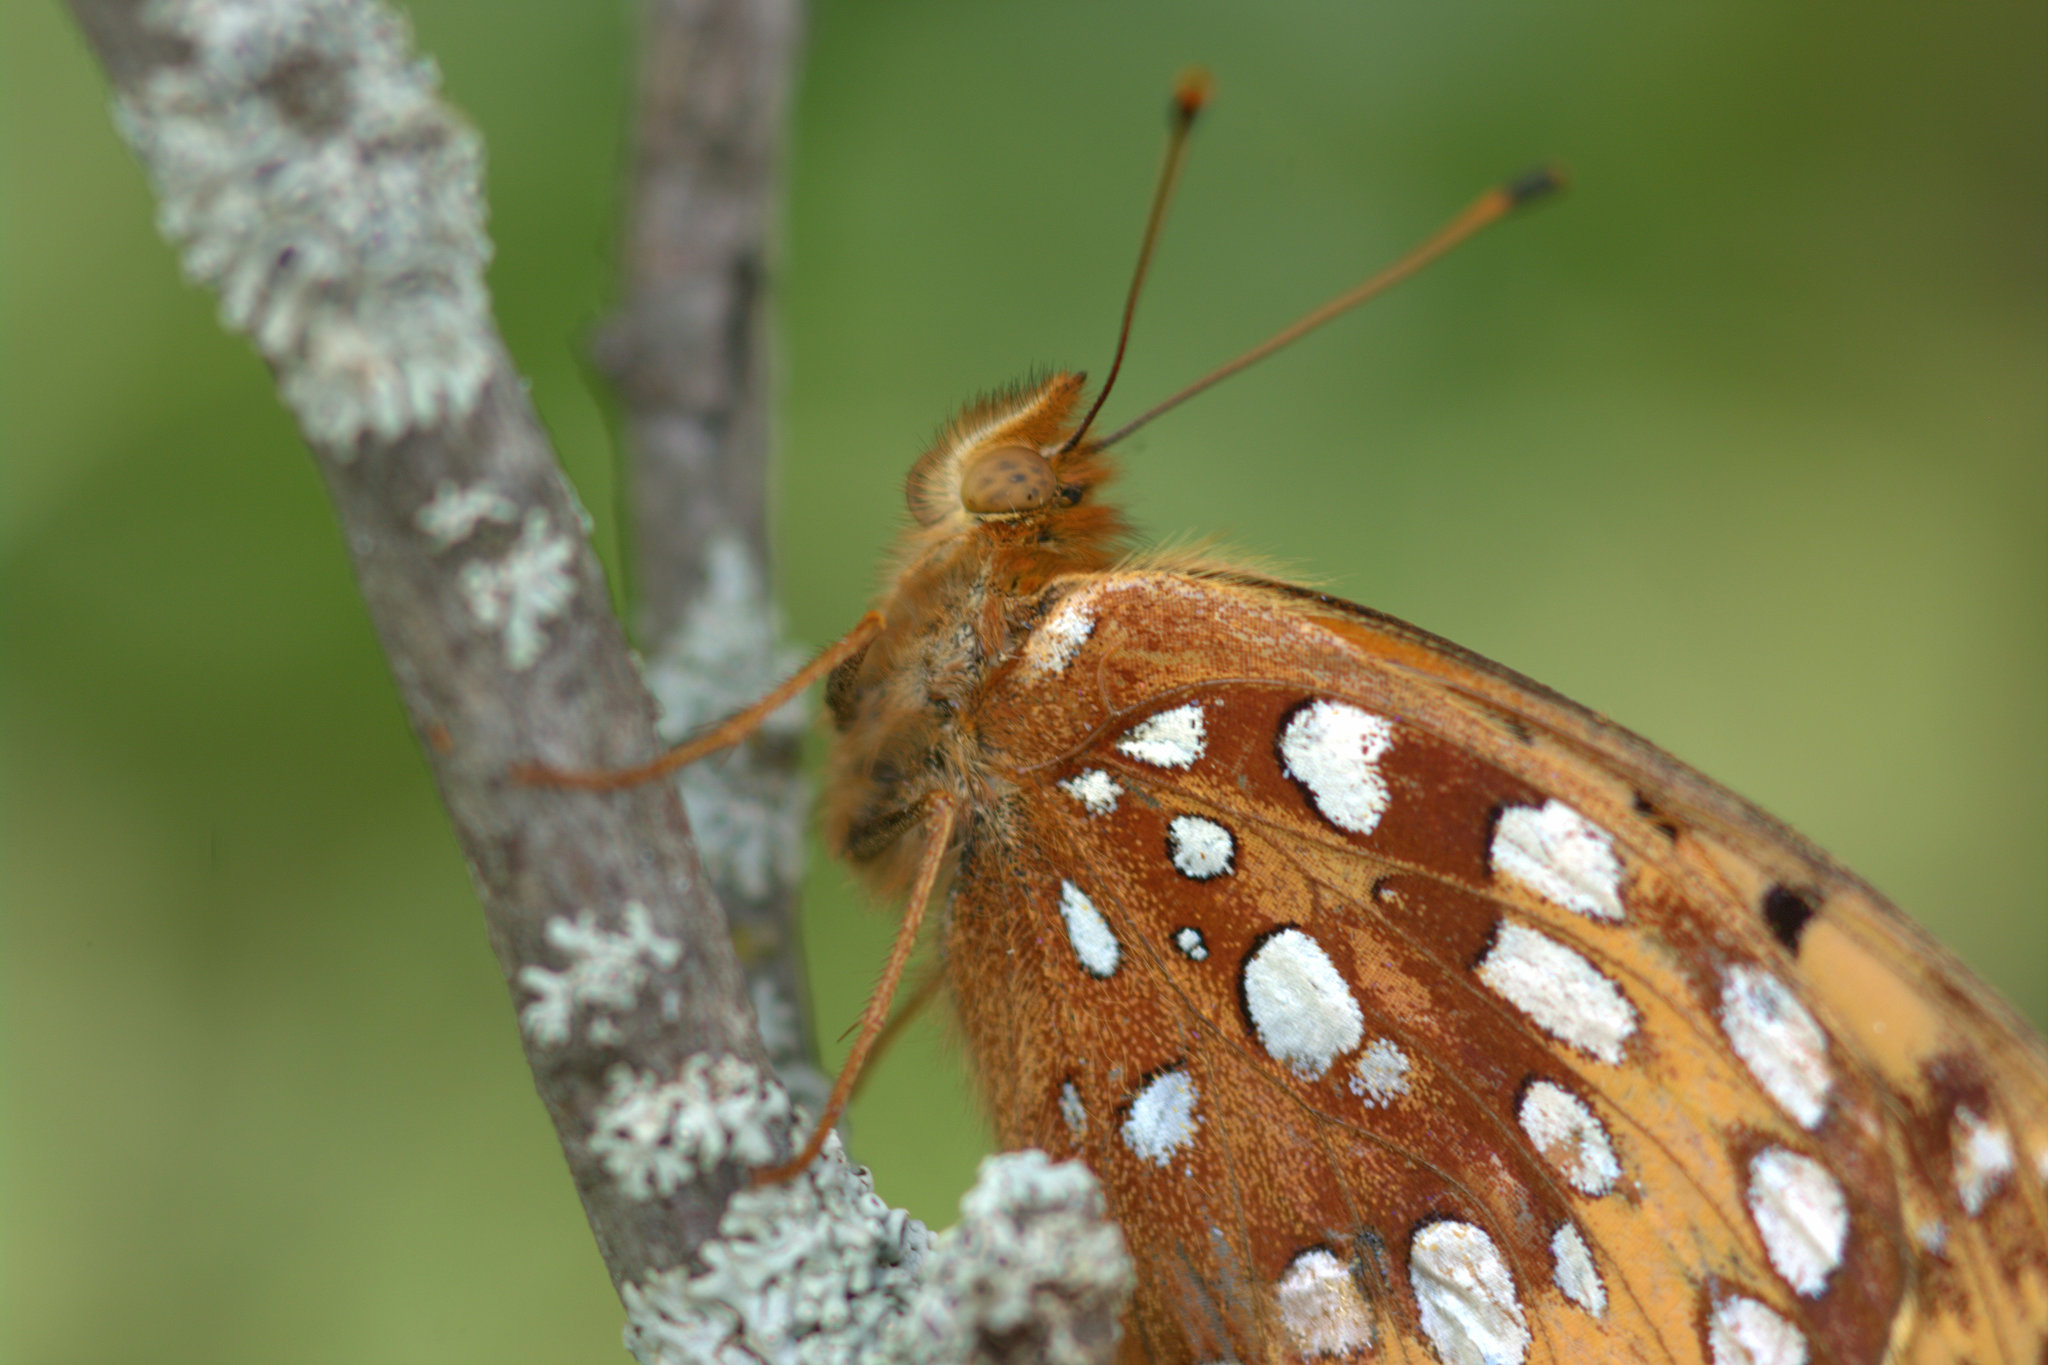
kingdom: Animalia
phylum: Arthropoda
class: Insecta
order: Lepidoptera
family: Nymphalidae
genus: Speyeria
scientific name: Speyeria cybele
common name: Great spangled fritillary
